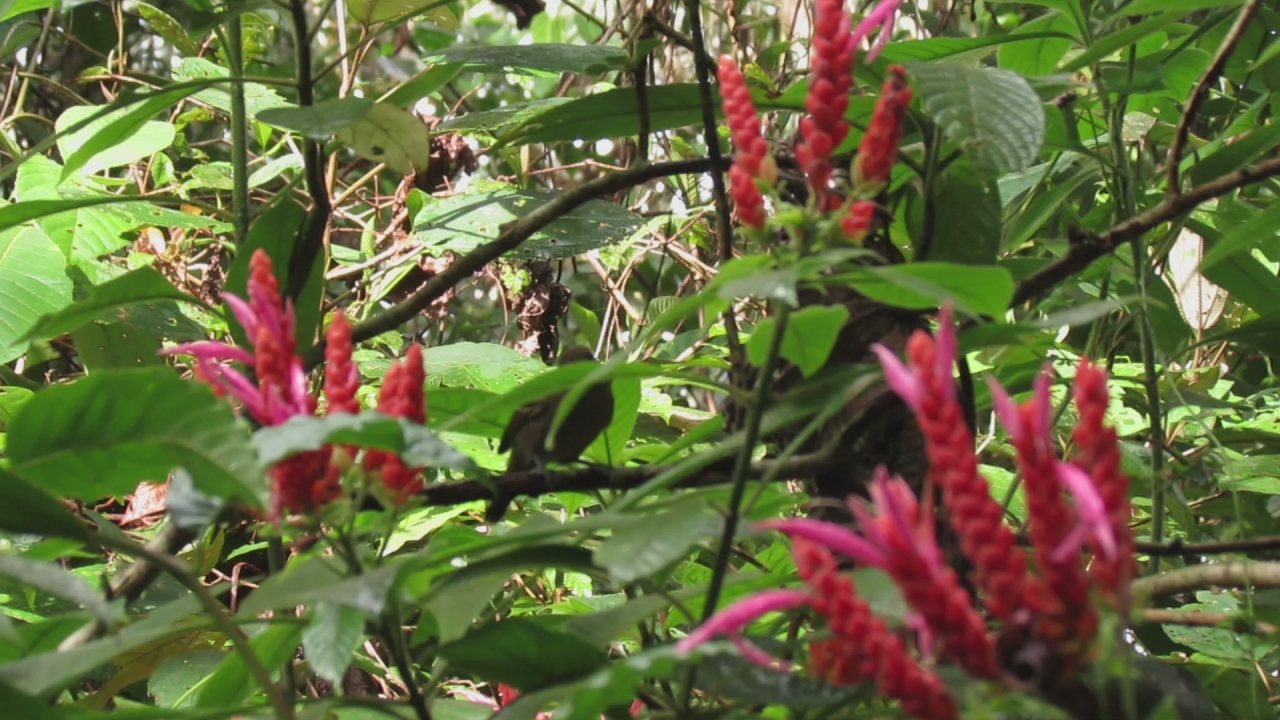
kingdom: Animalia
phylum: Chordata
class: Aves
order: Passeriformes
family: Thamnophilidae
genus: Thamnophilus
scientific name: Thamnophilus atrinucha
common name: Black-crowned antshrike
